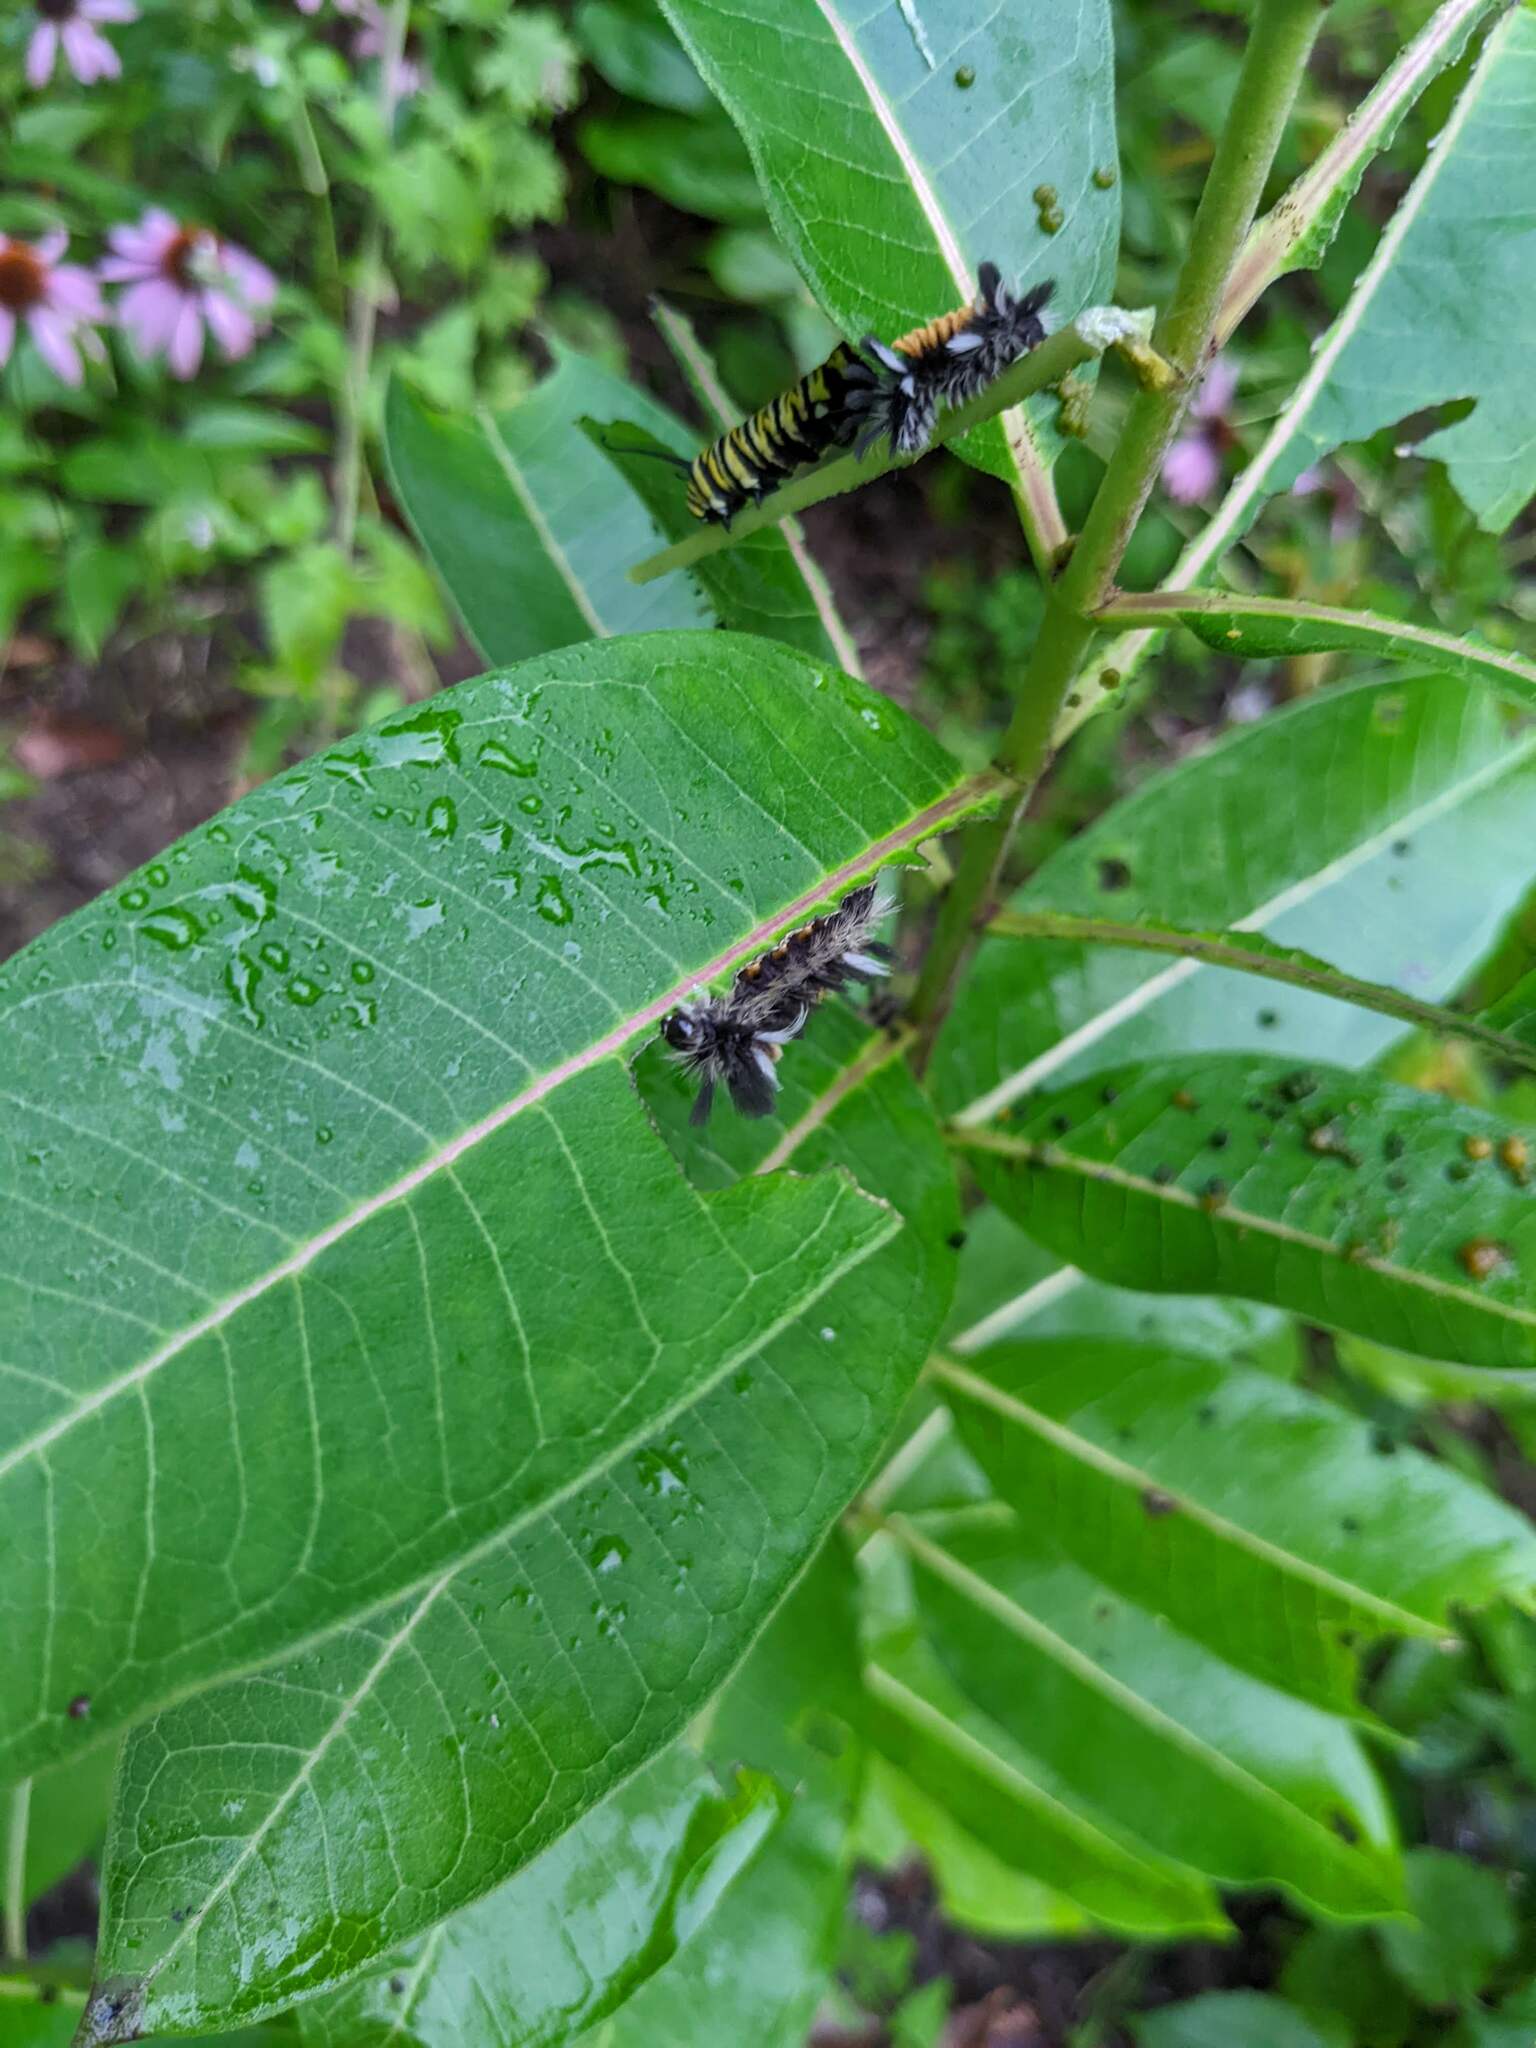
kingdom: Animalia
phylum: Arthropoda
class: Insecta
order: Lepidoptera
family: Erebidae
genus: Euchaetes
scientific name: Euchaetes egle
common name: Milkweed tussock moth
